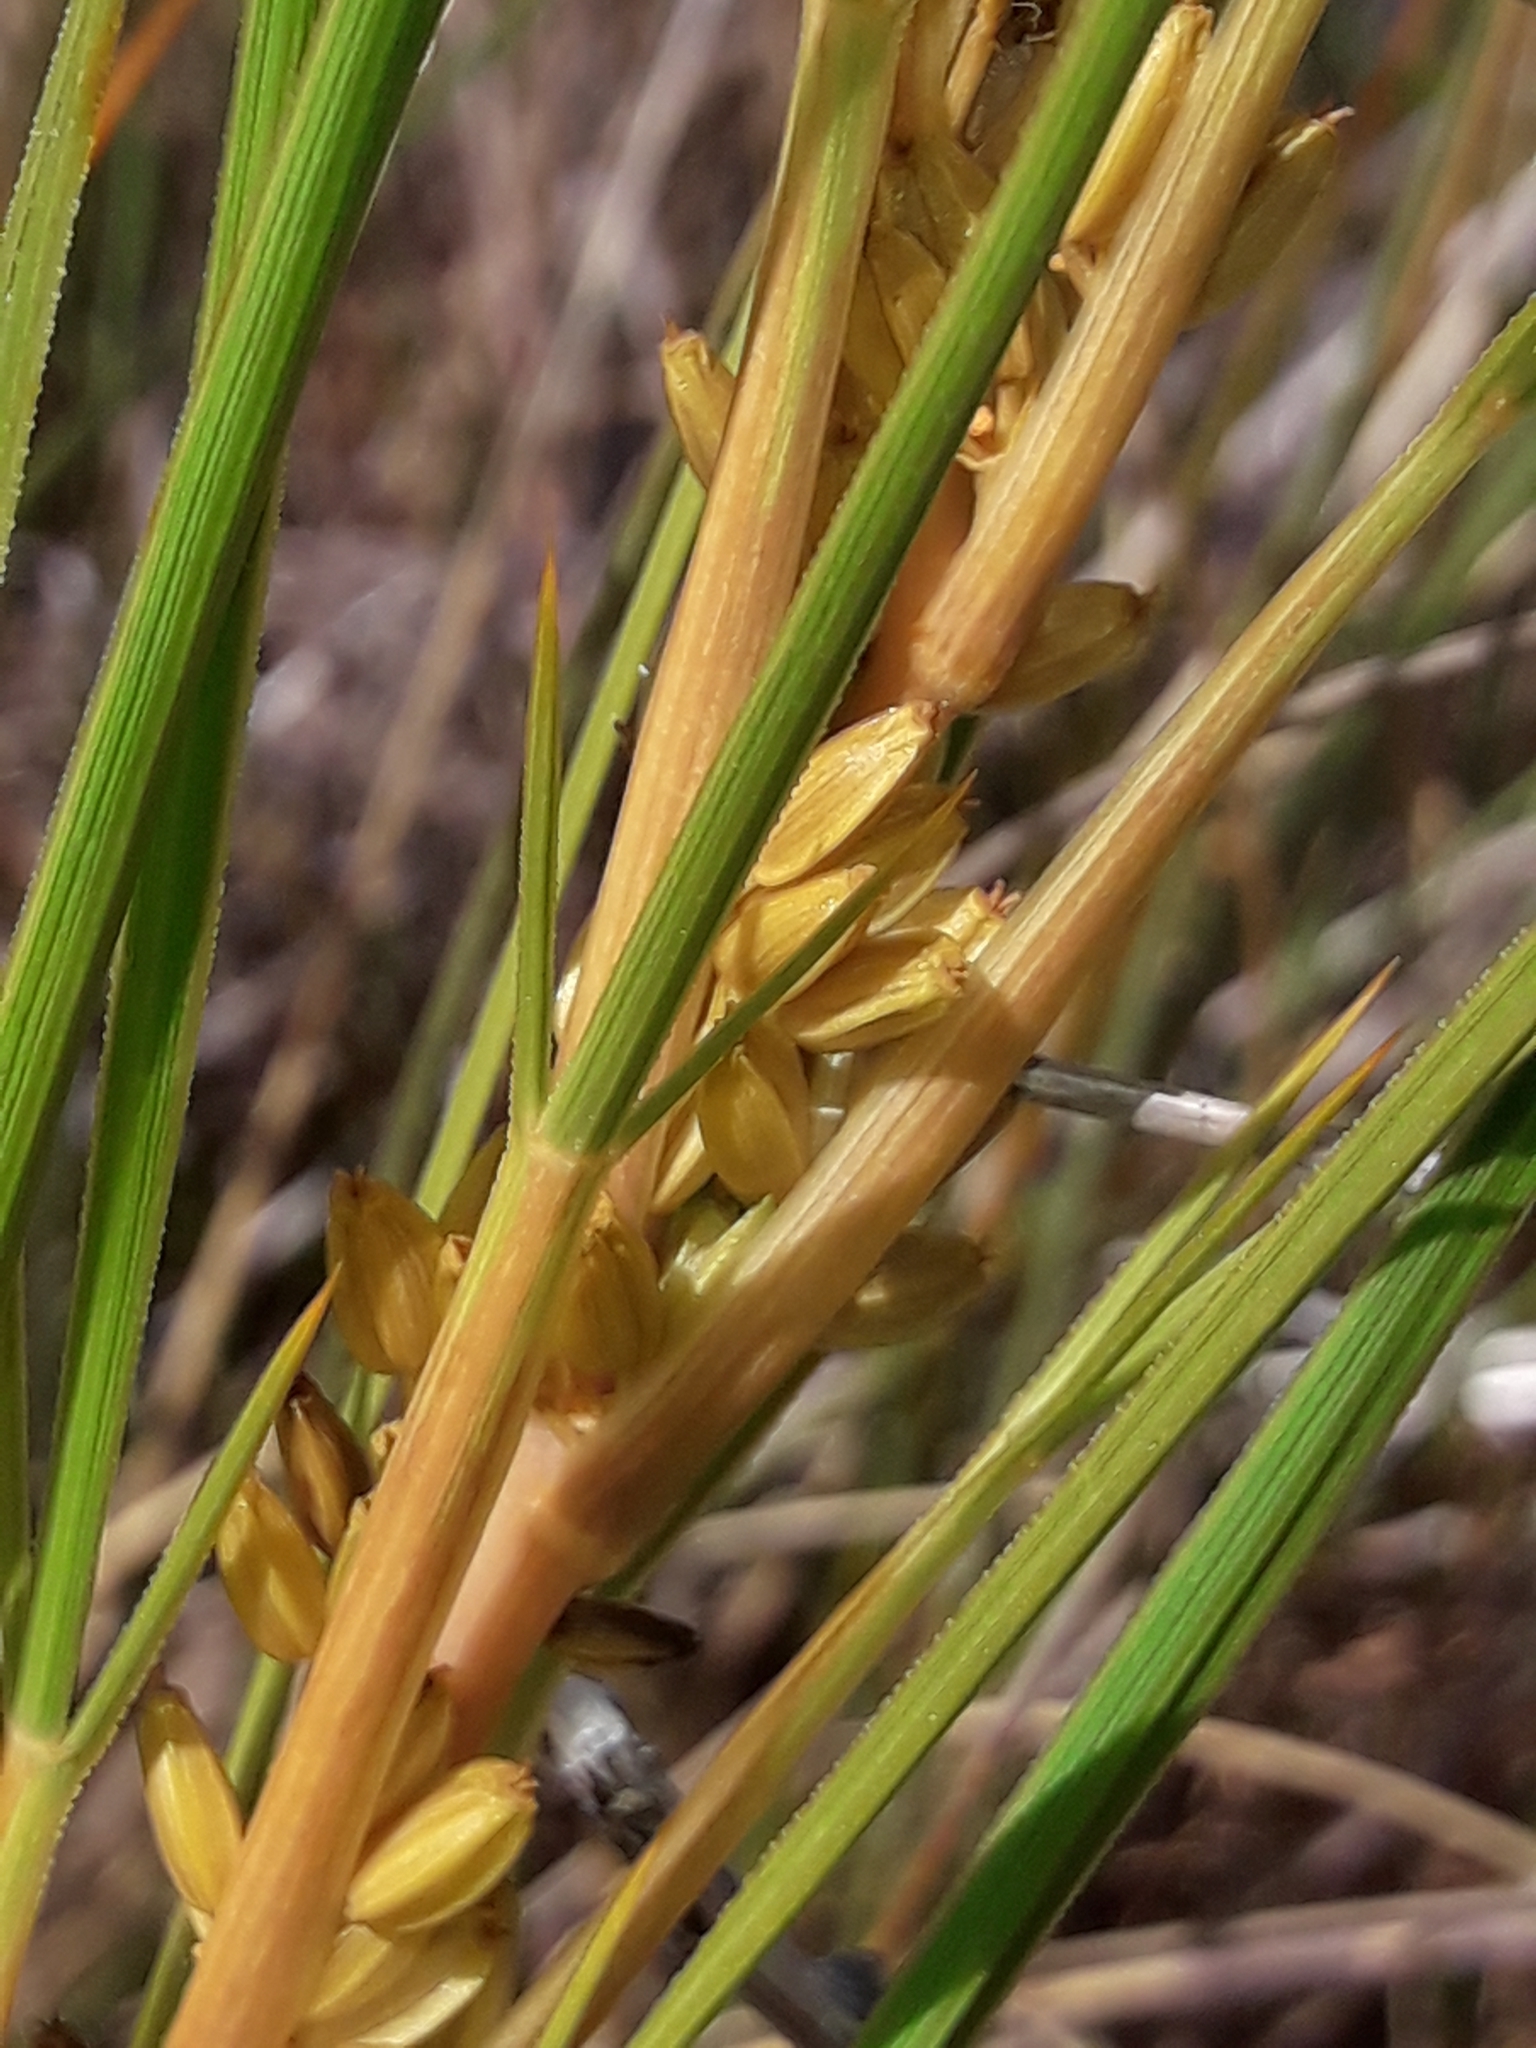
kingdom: Plantae
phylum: Tracheophyta
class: Magnoliopsida
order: Apiales
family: Apiaceae
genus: Aciphylla
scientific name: Aciphylla anomala
